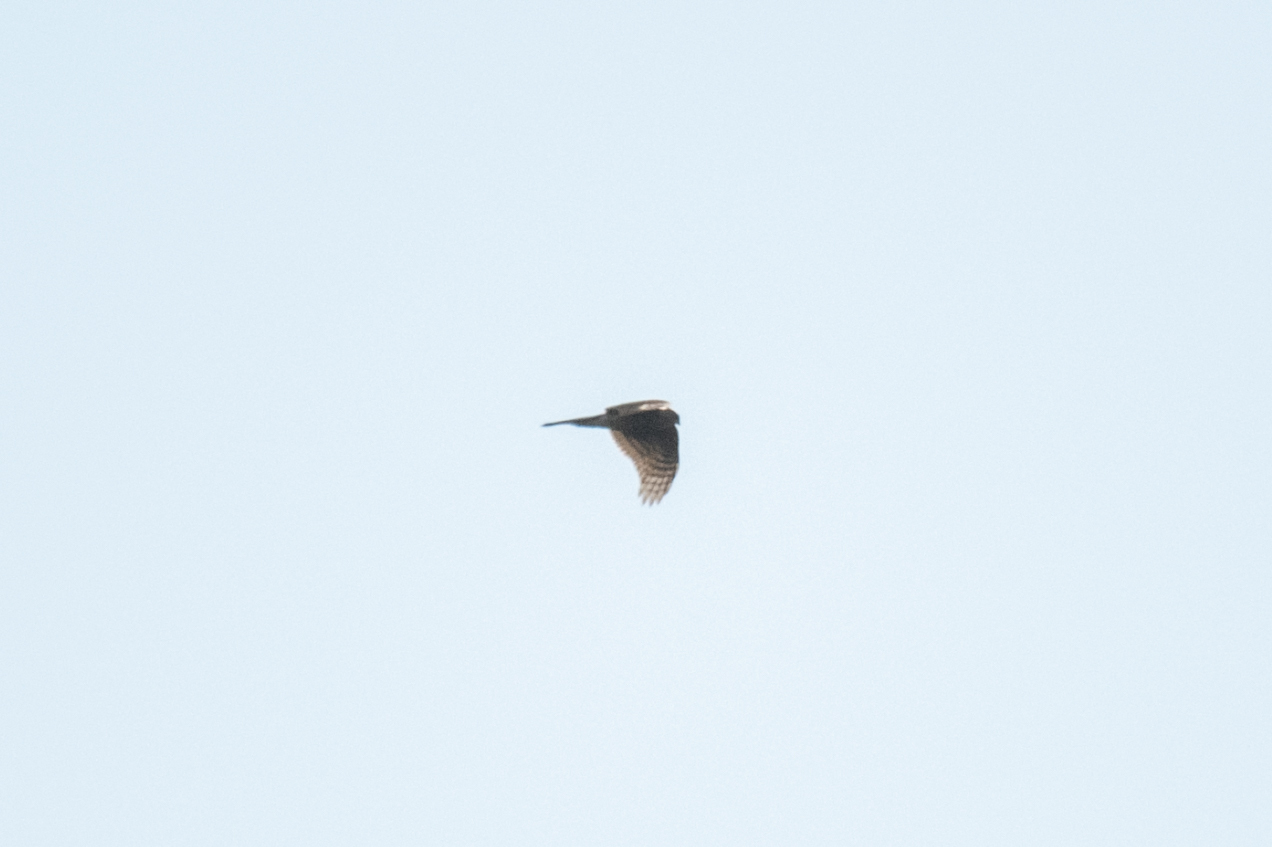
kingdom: Animalia
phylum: Chordata
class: Aves
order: Accipitriformes
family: Accipitridae
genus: Accipiter
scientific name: Accipiter nisus
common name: Eurasian sparrowhawk
